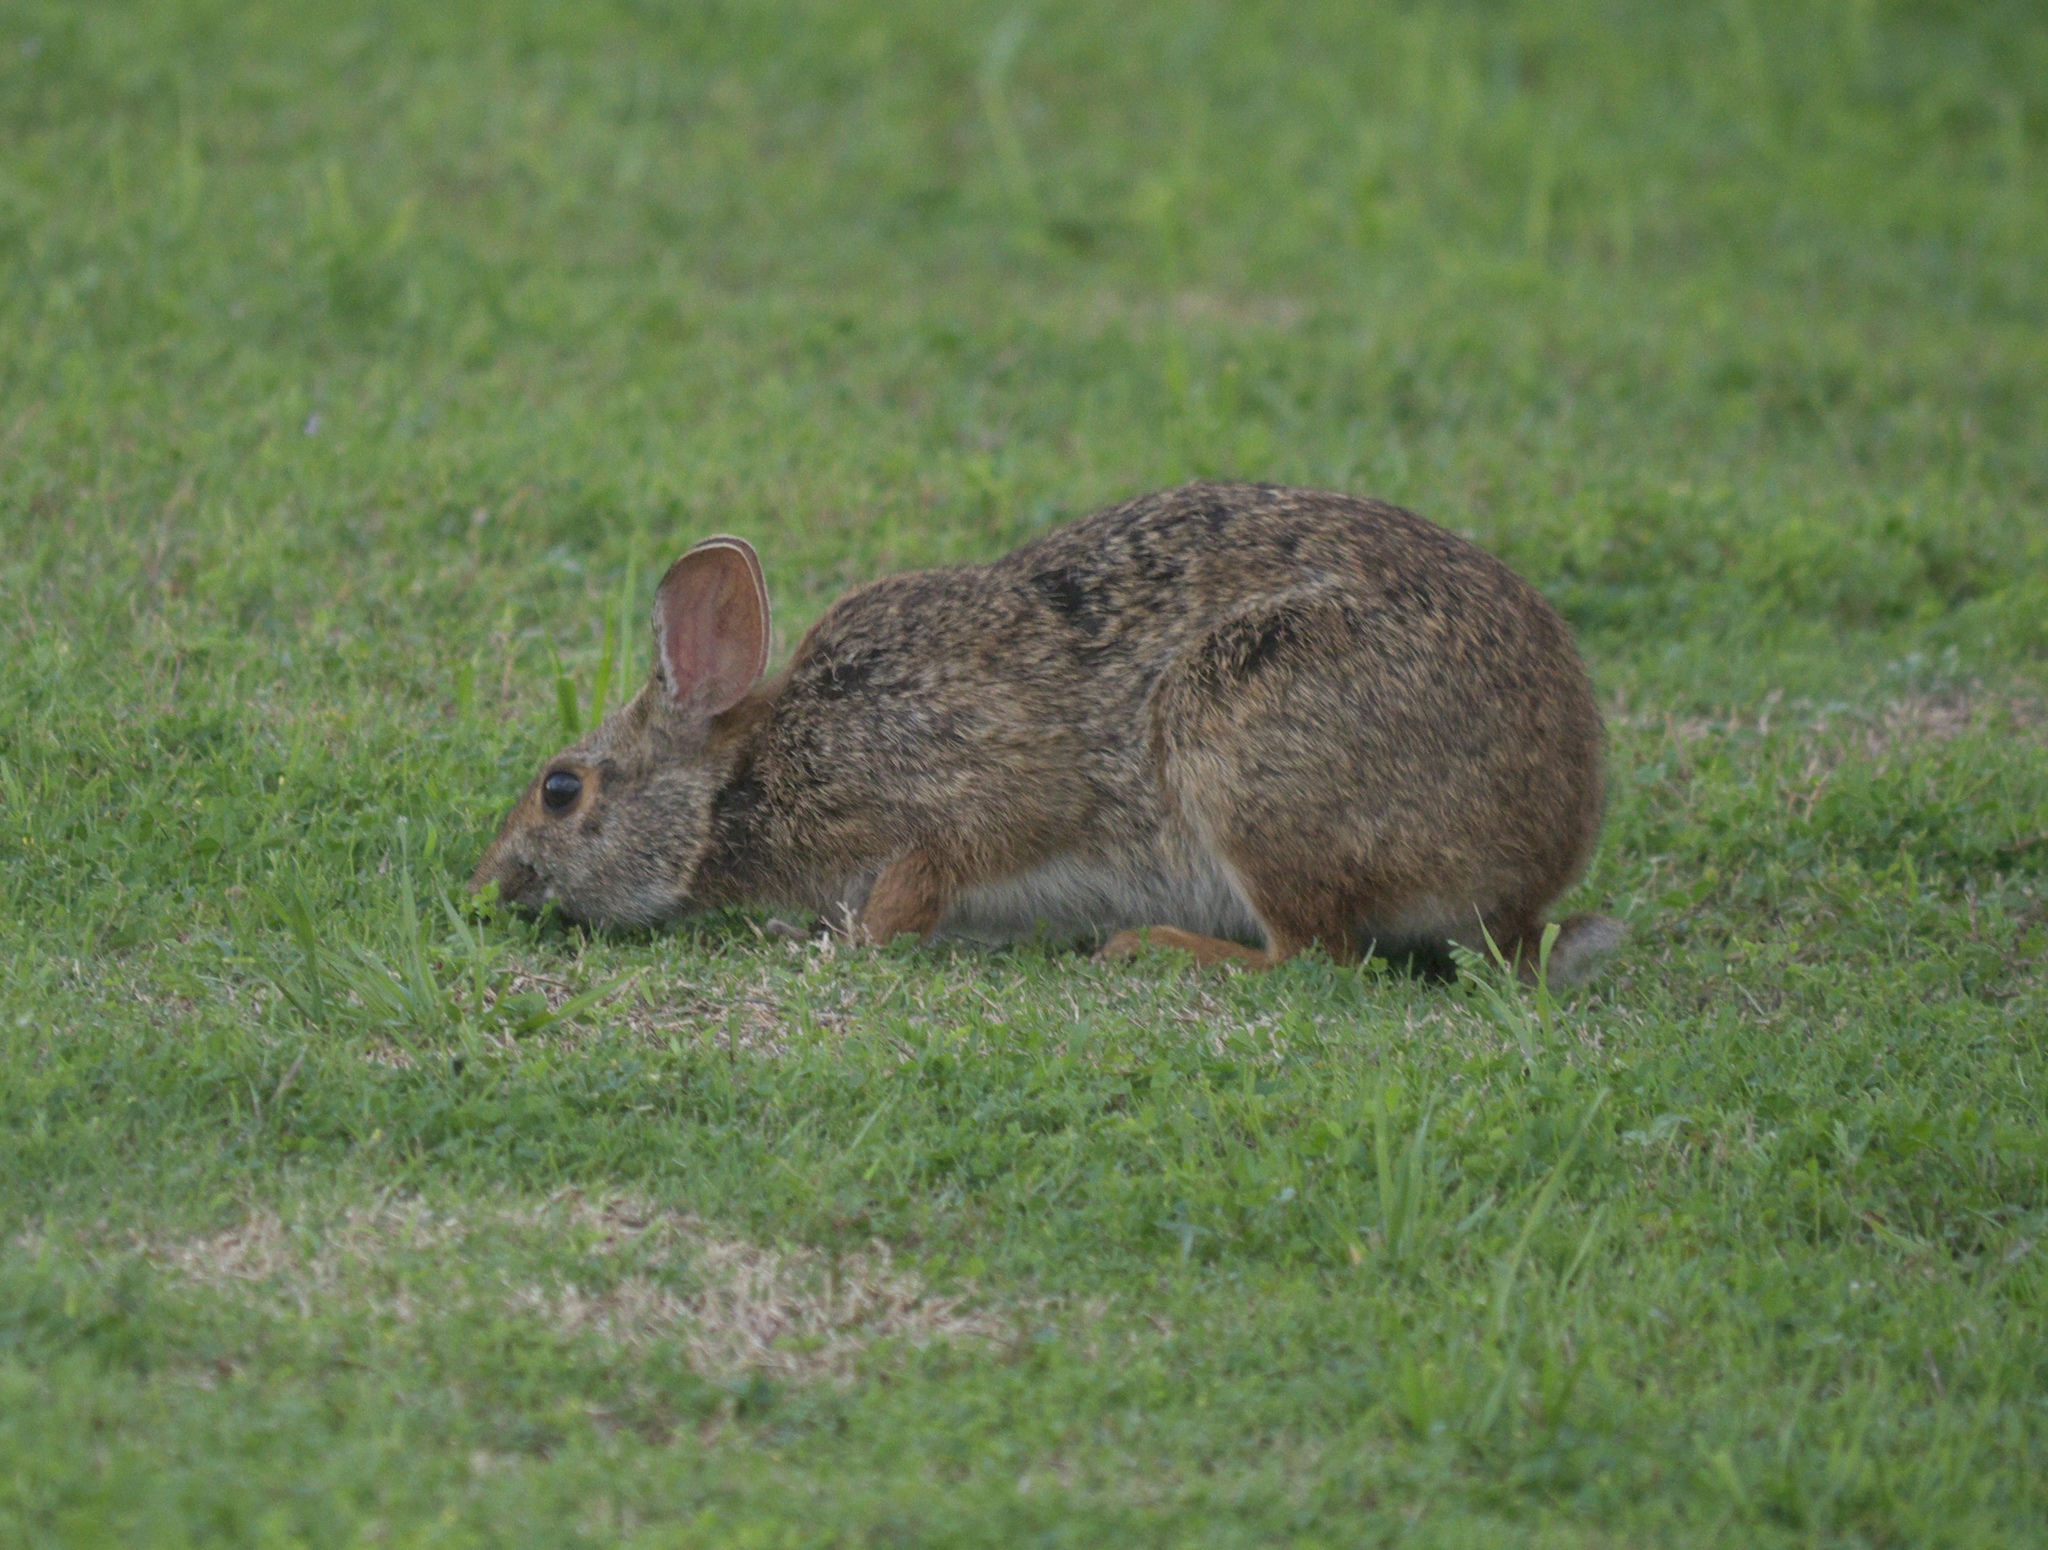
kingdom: Animalia
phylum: Chordata
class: Mammalia
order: Lagomorpha
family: Leporidae
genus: Sylvilagus
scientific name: Sylvilagus aquaticus
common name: Swamp rabbit
